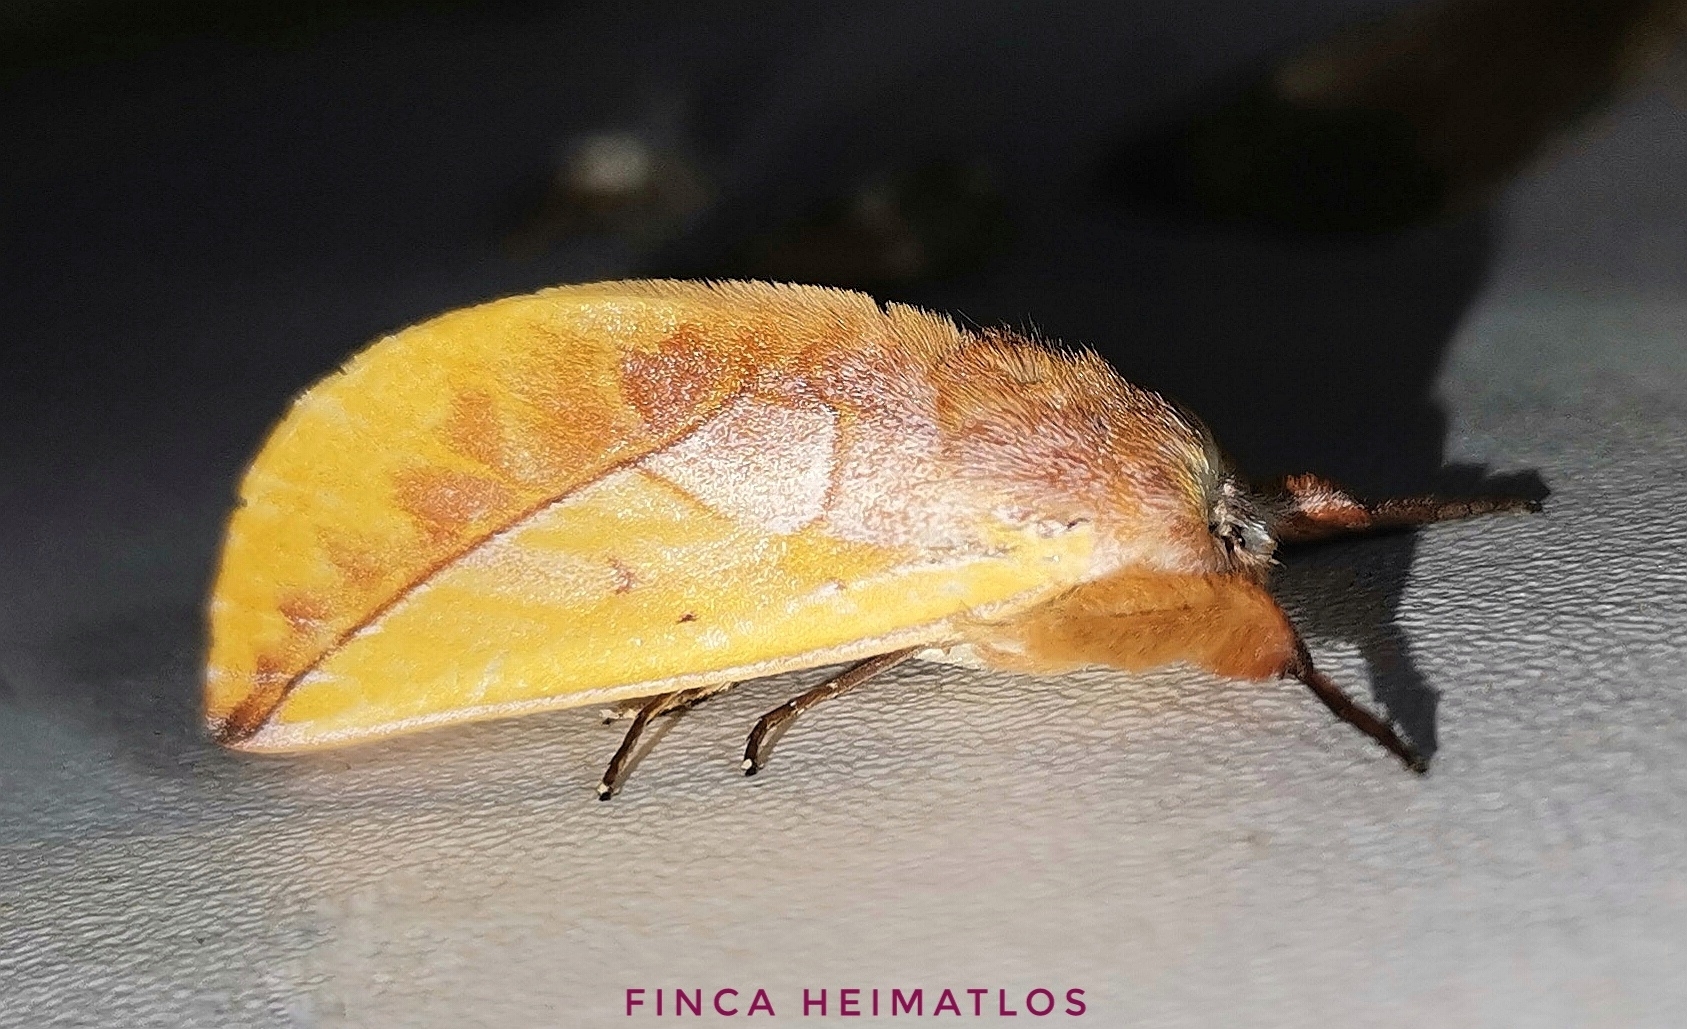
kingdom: Animalia
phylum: Arthropoda
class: Insecta
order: Lepidoptera
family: Notodontidae
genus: Hemiceras
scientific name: Hemiceras flava
